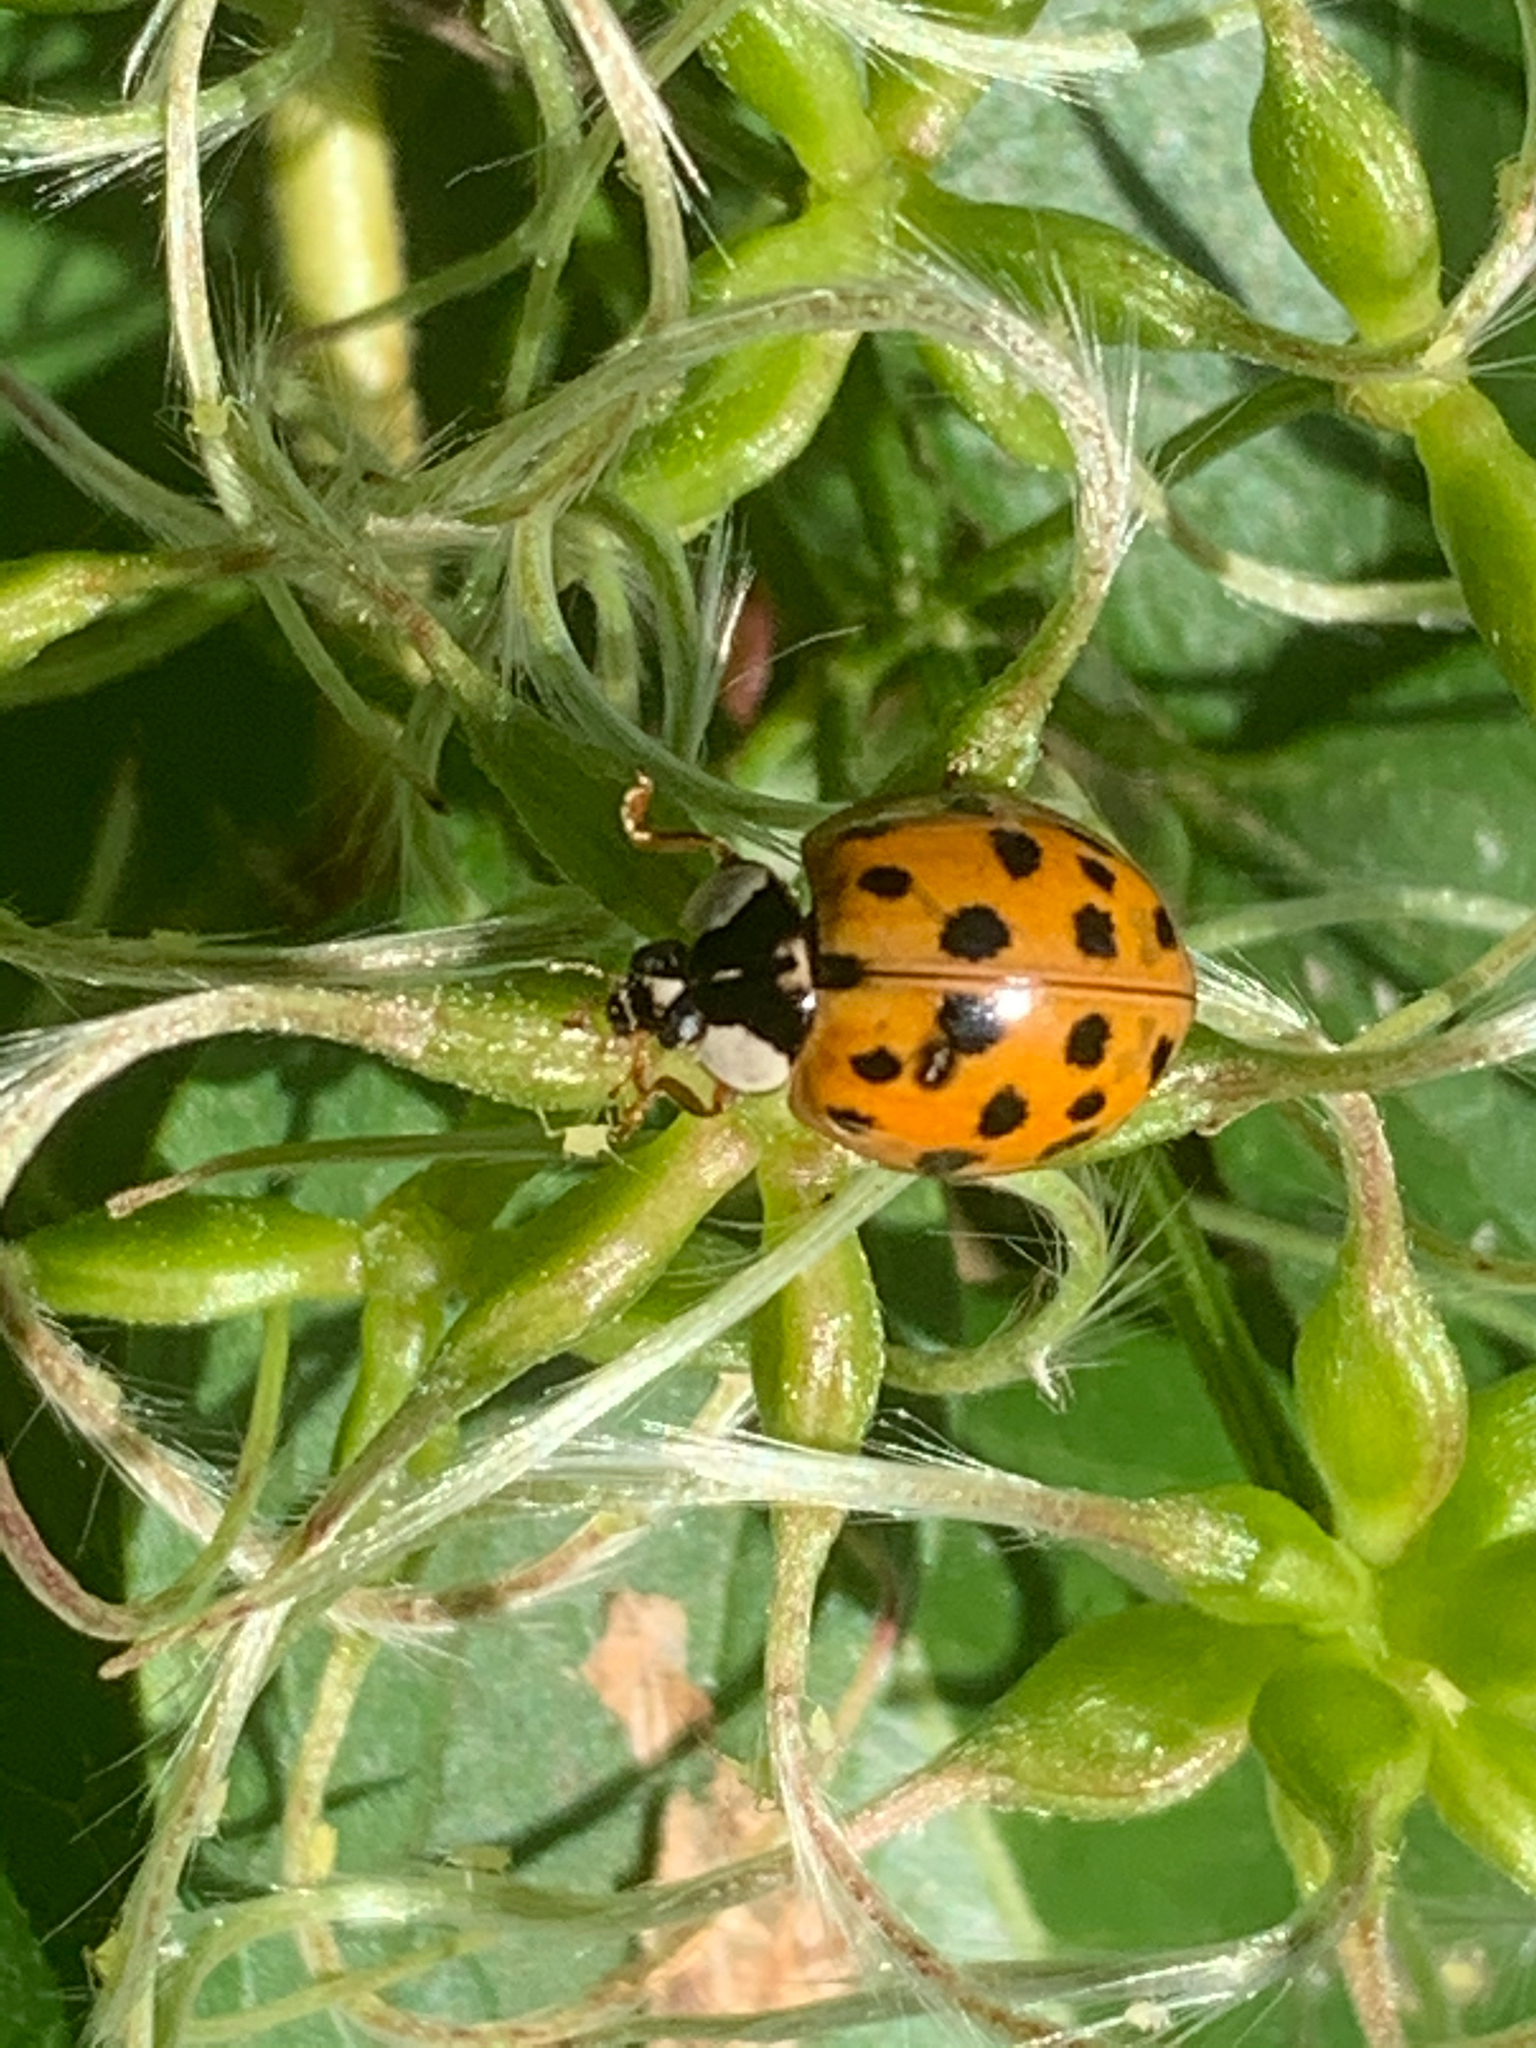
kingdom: Animalia
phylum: Arthropoda
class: Insecta
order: Coleoptera
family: Coccinellidae
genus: Harmonia
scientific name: Harmonia axyridis
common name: Harlequin ladybird
